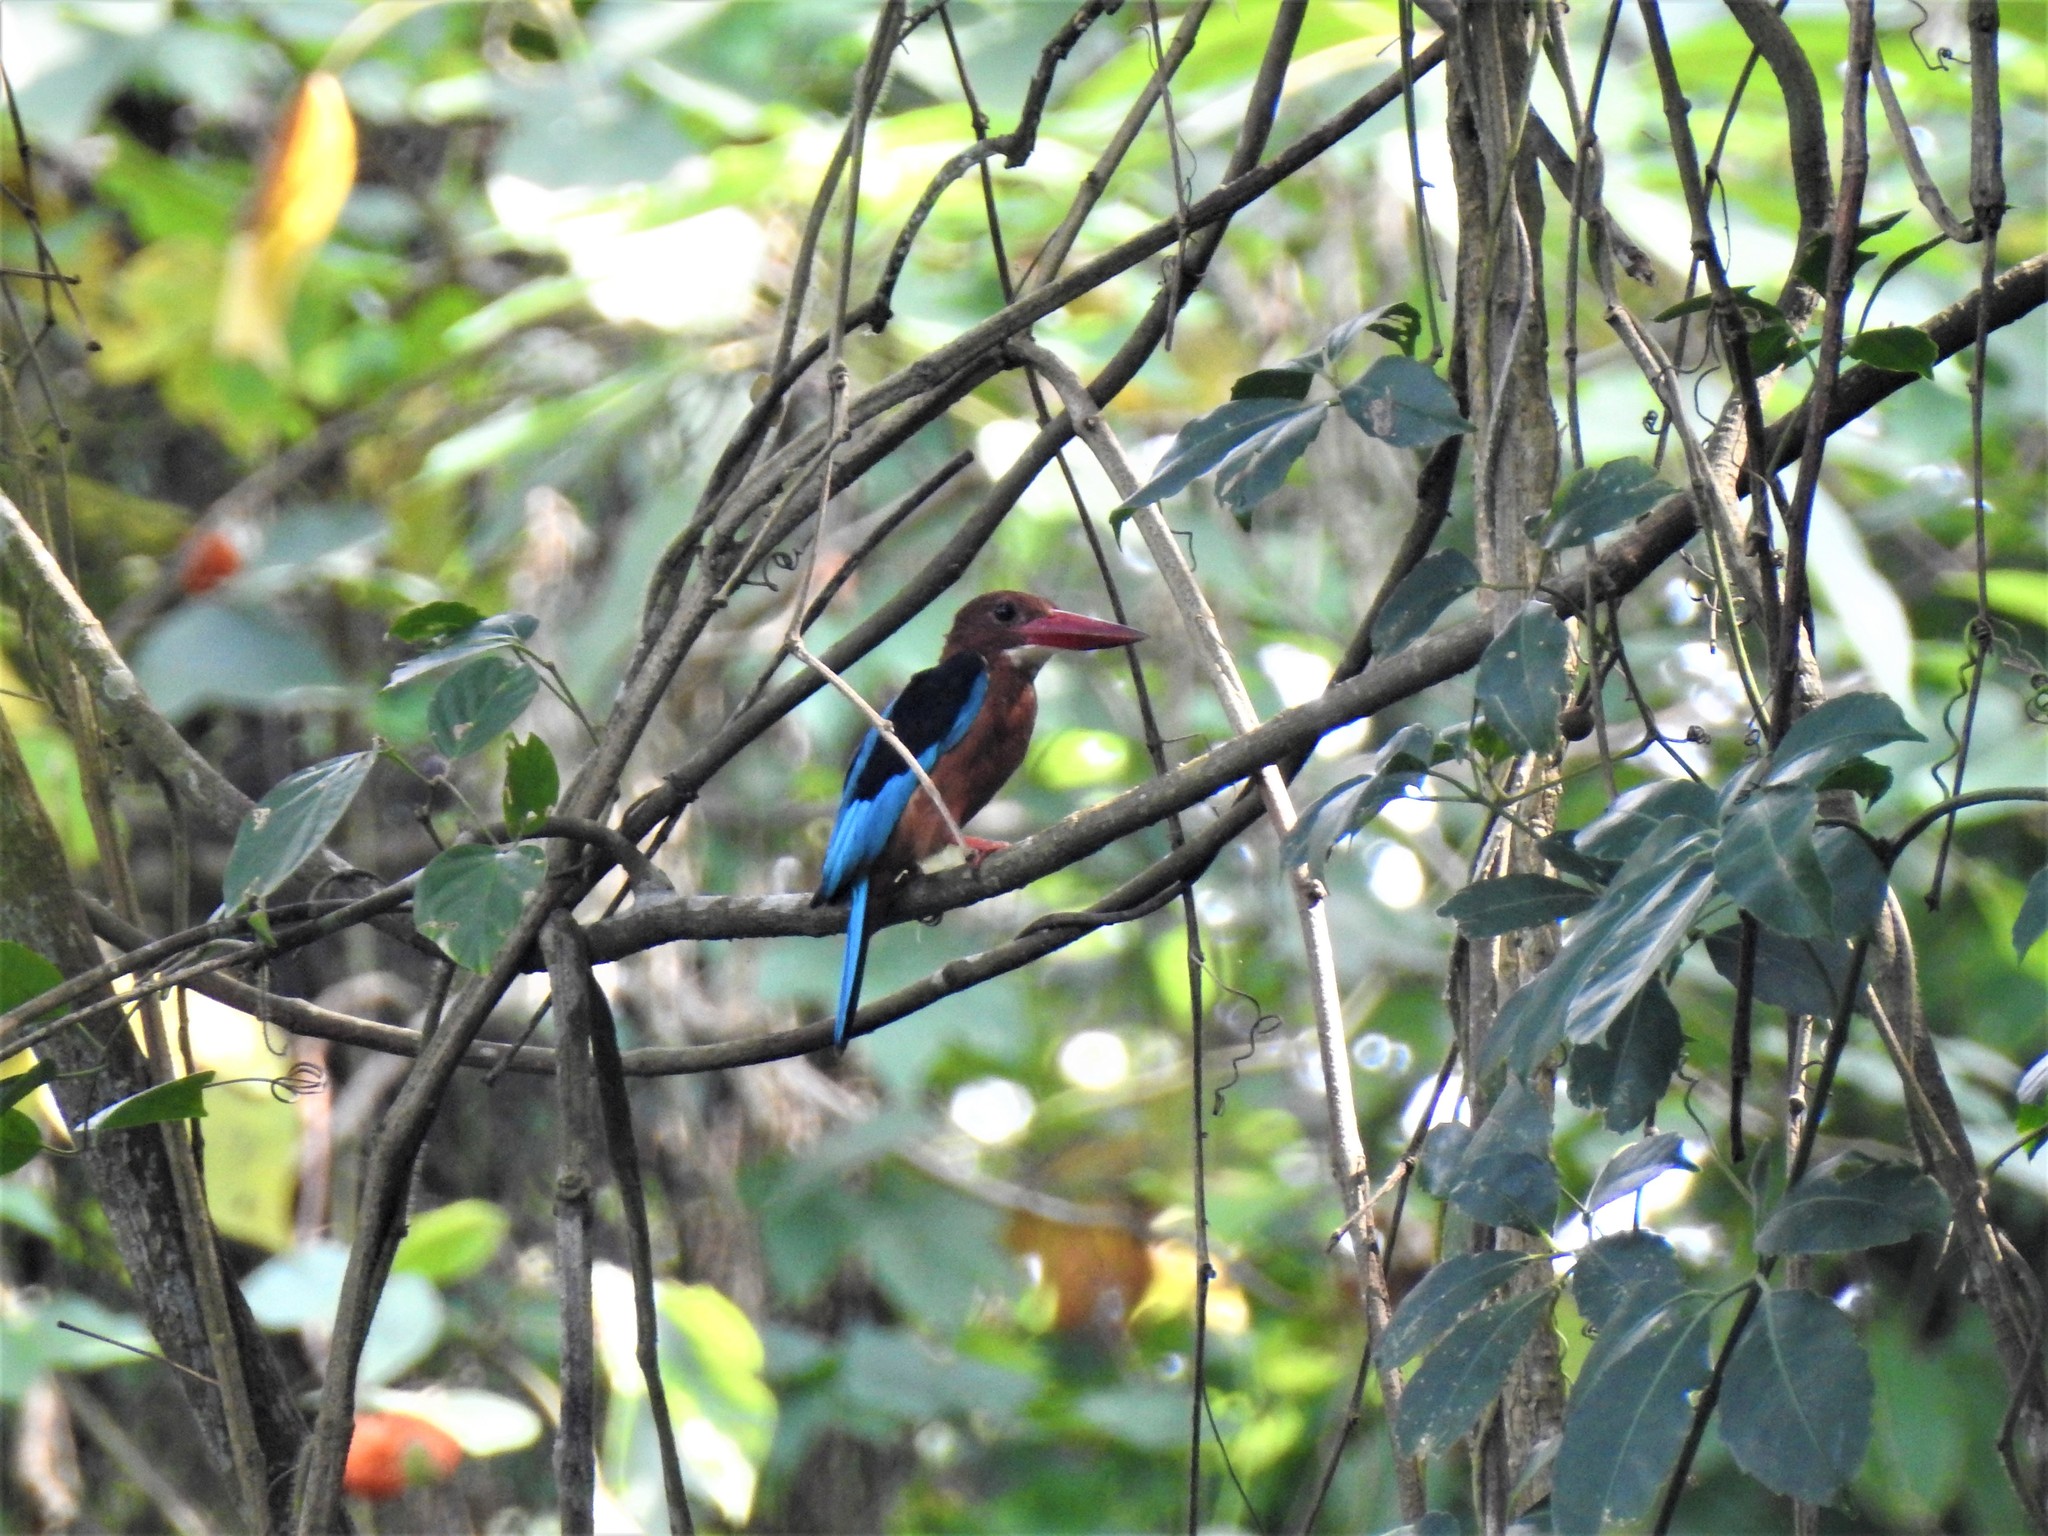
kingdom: Animalia
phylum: Chordata
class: Aves
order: Coraciiformes
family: Alcedinidae
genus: Halcyon
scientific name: Halcyon gularis
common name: Brown-breasted kingfisher
